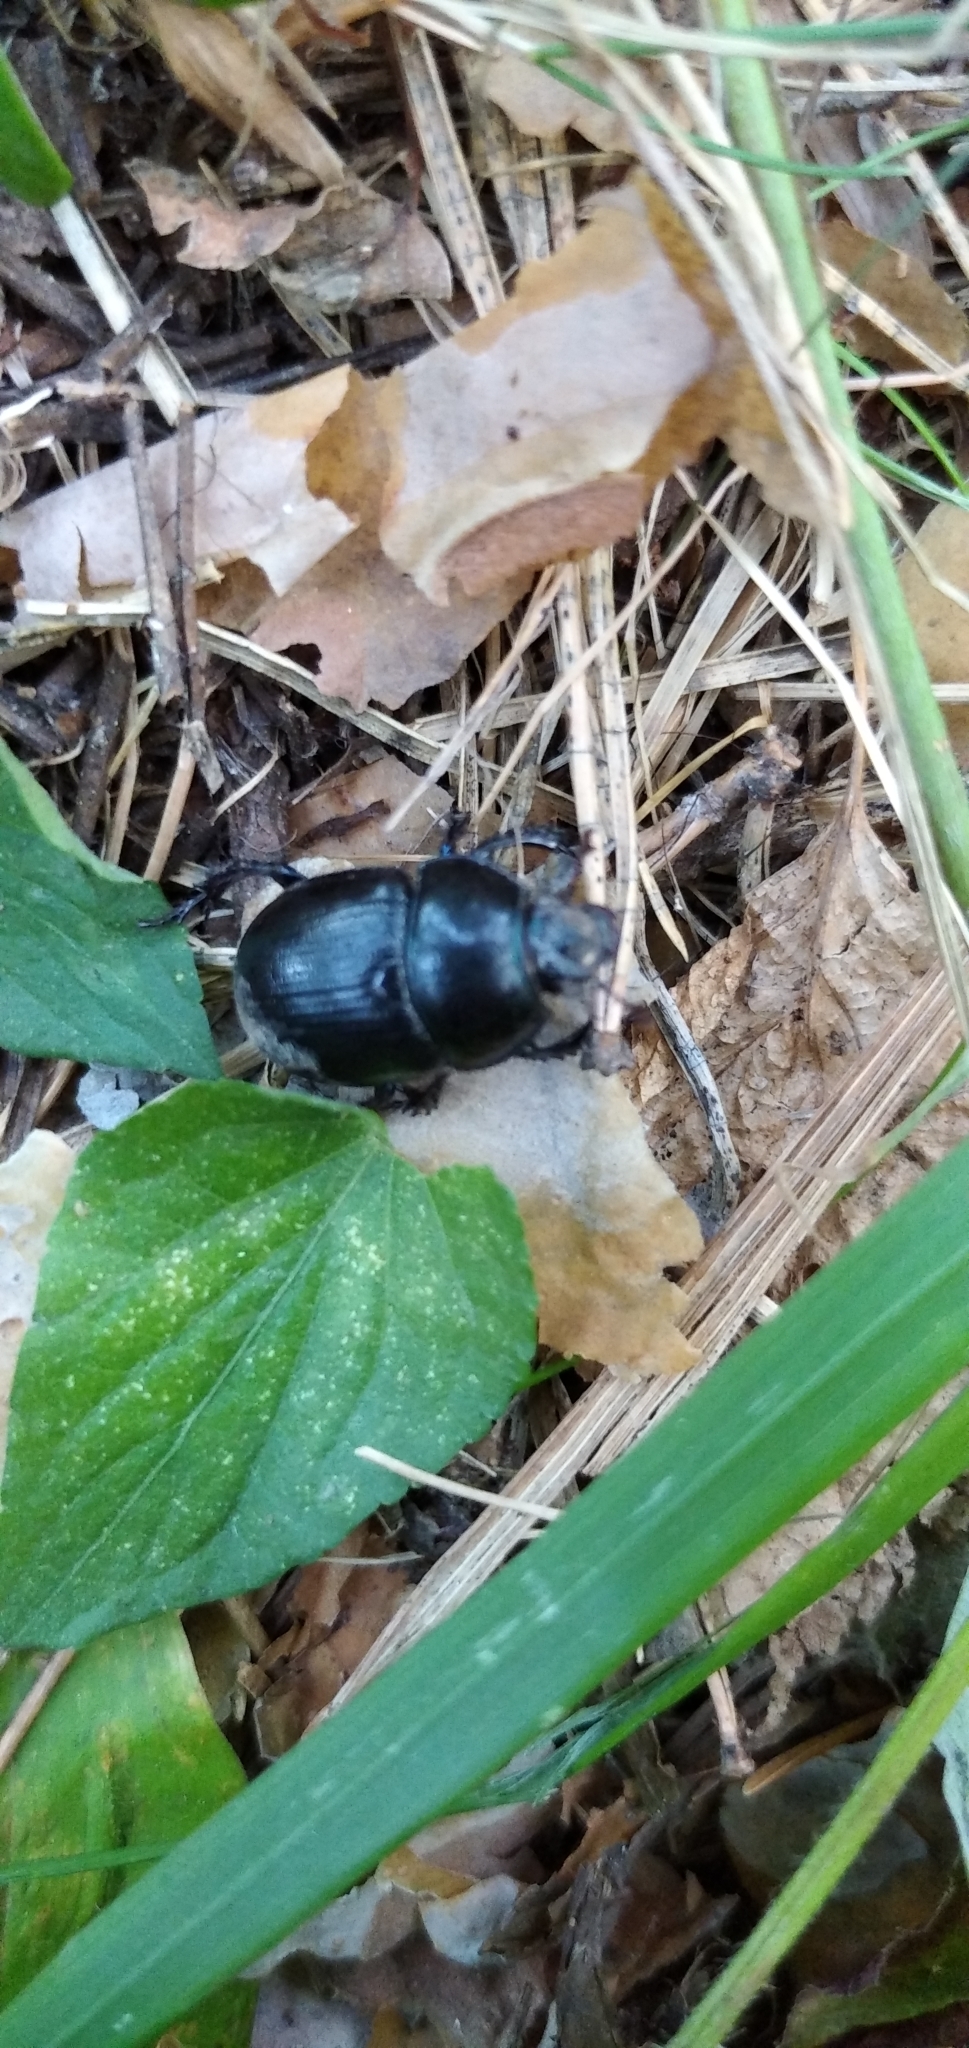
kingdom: Animalia
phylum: Arthropoda
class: Insecta
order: Coleoptera
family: Geotrupidae
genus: Anoplotrupes
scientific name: Anoplotrupes stercorosus
